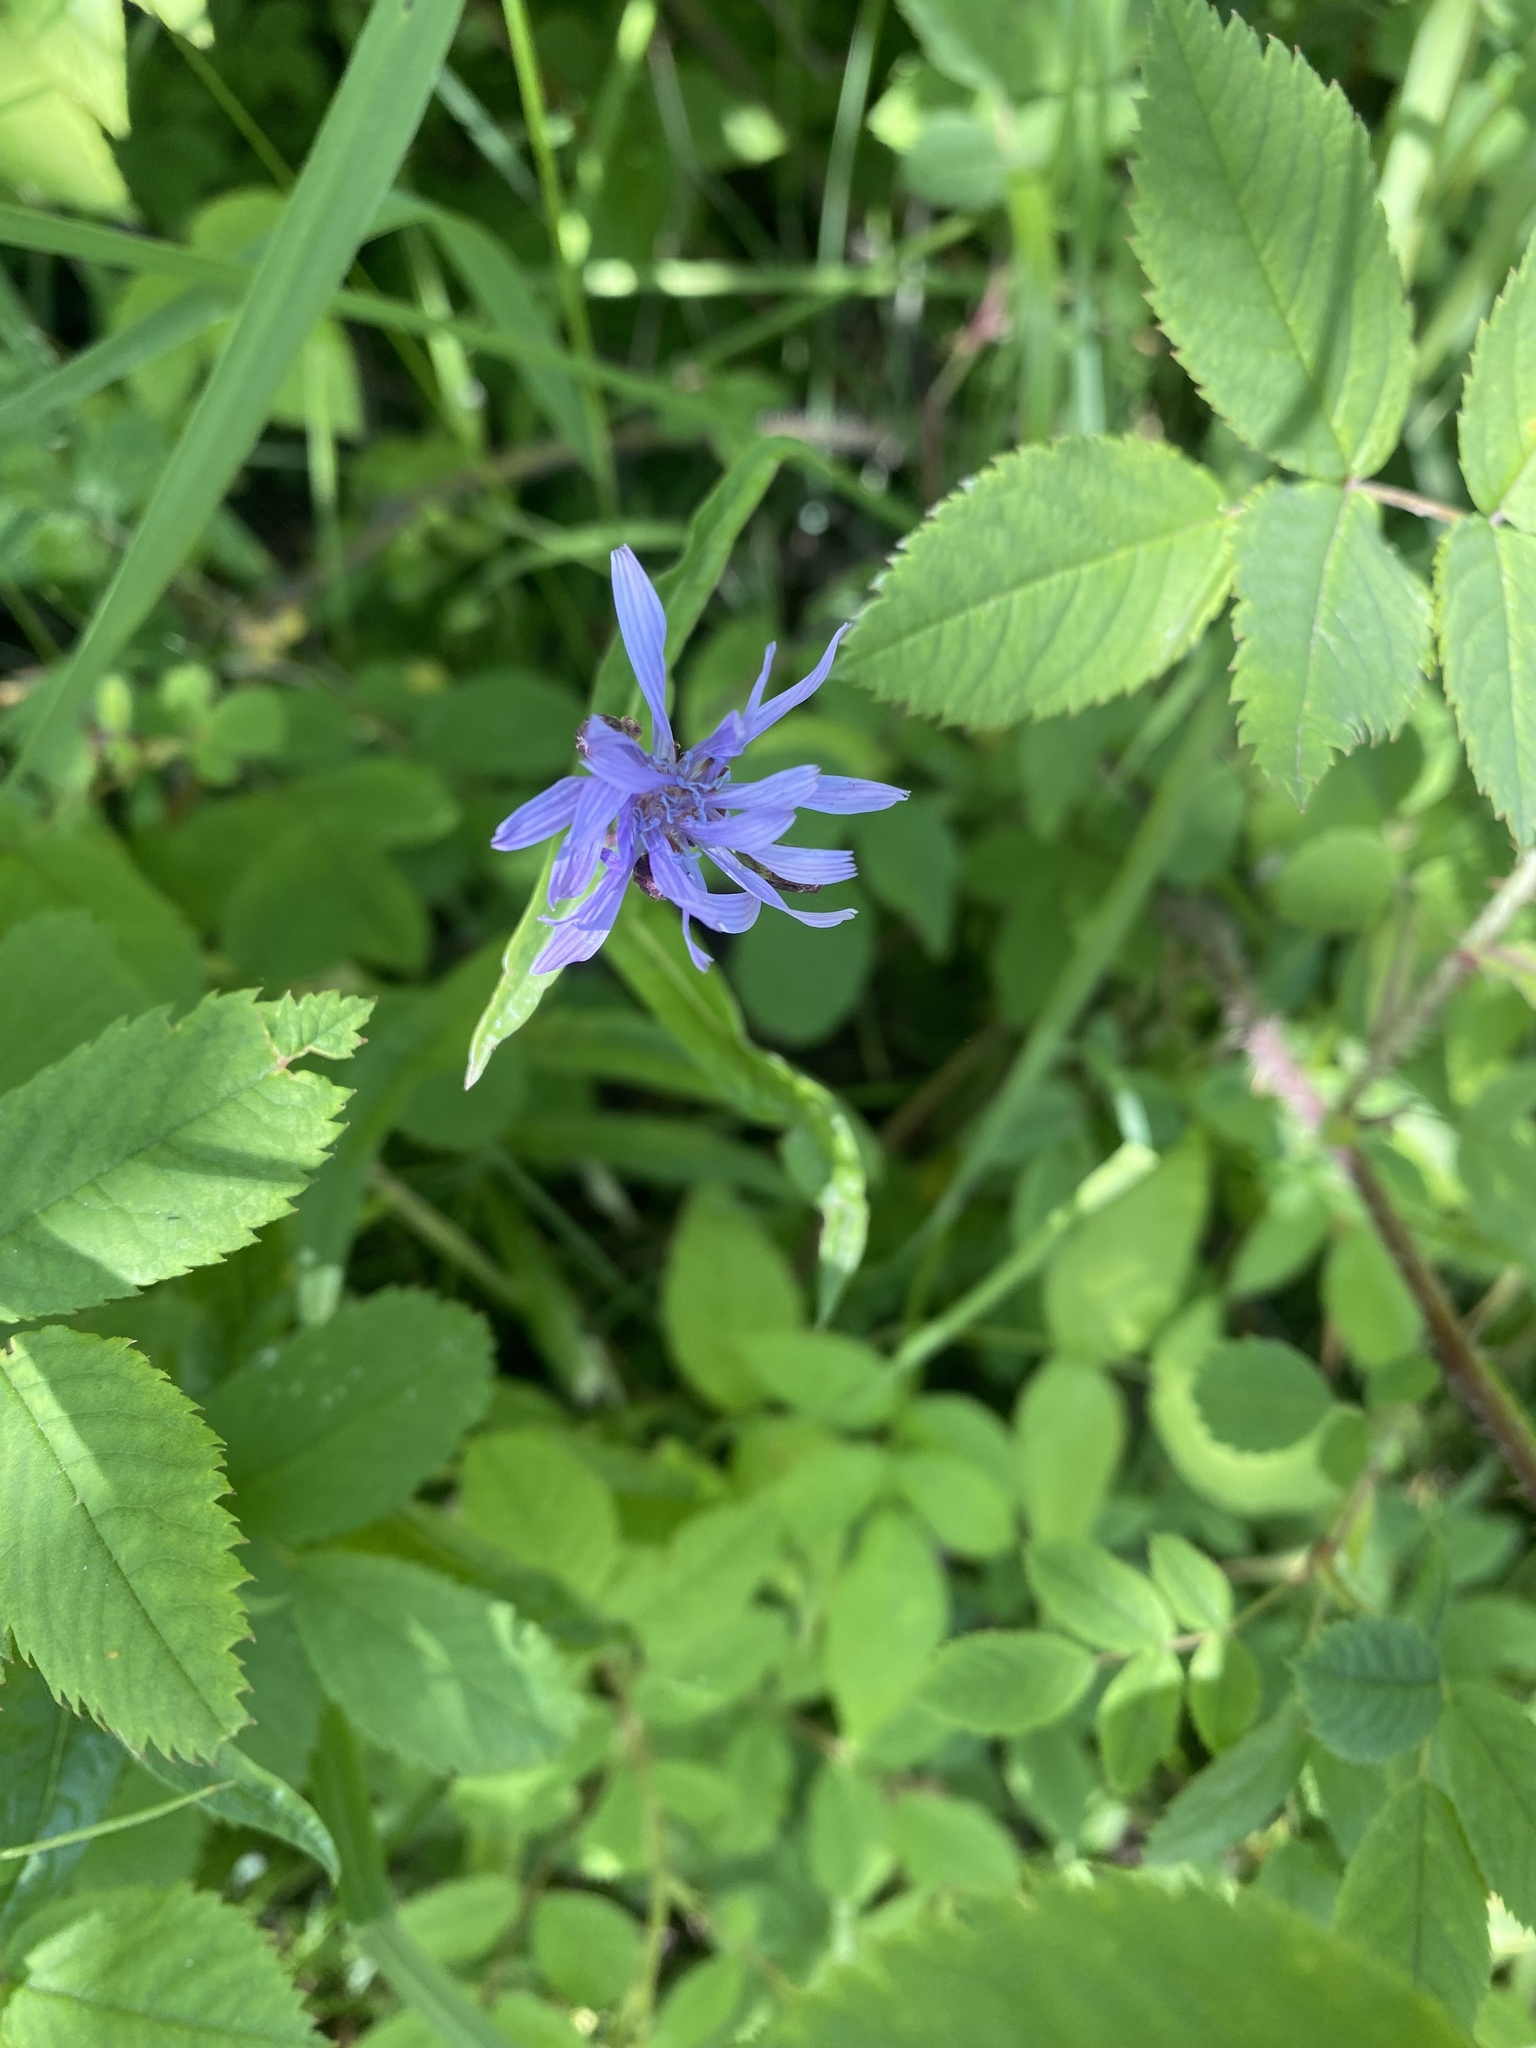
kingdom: Plantae
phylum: Tracheophyta
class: Magnoliopsida
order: Asterales
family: Asteraceae
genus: Lactuca
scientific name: Lactuca sibirica
